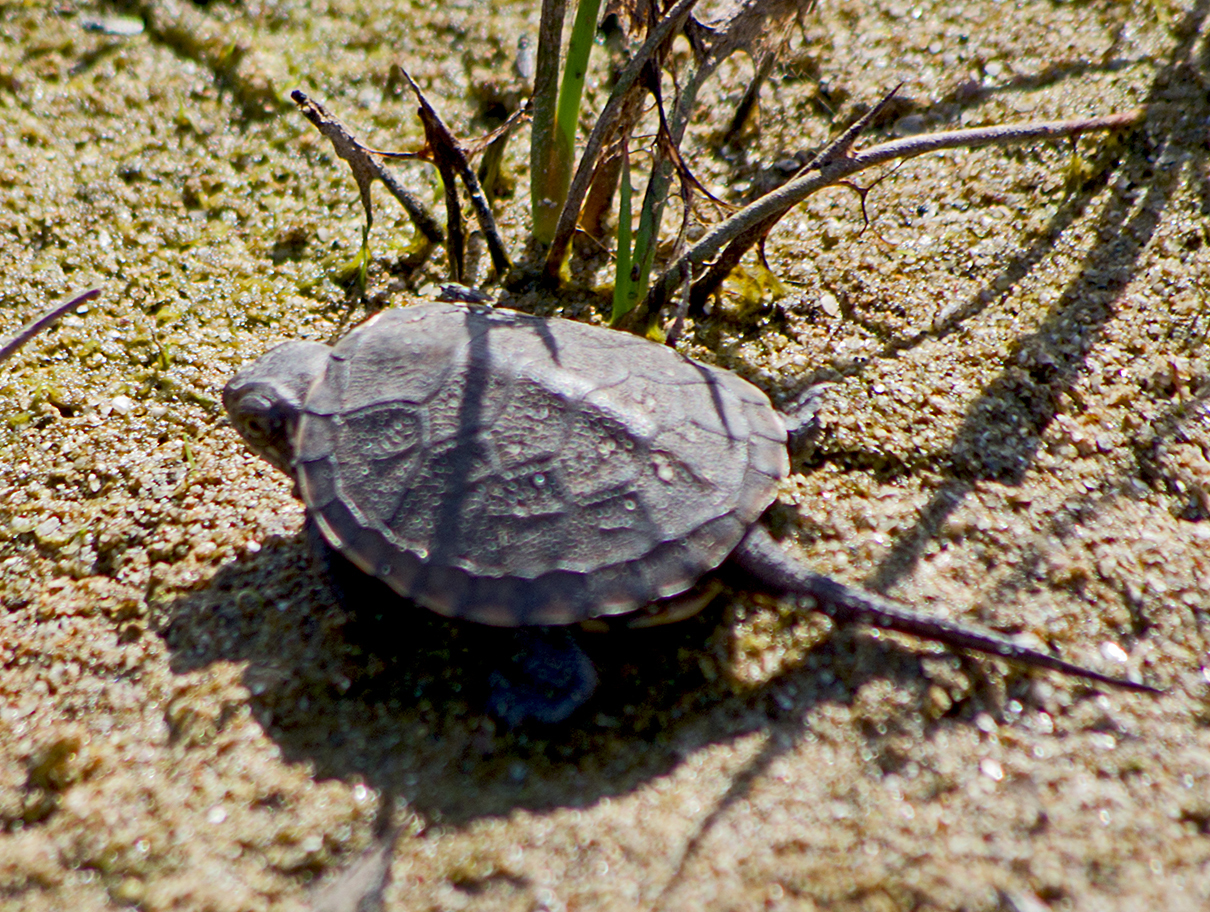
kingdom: Animalia
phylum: Chordata
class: Testudines
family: Emydidae
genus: Emys
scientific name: Emys orbicularis
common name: European pond turtle
